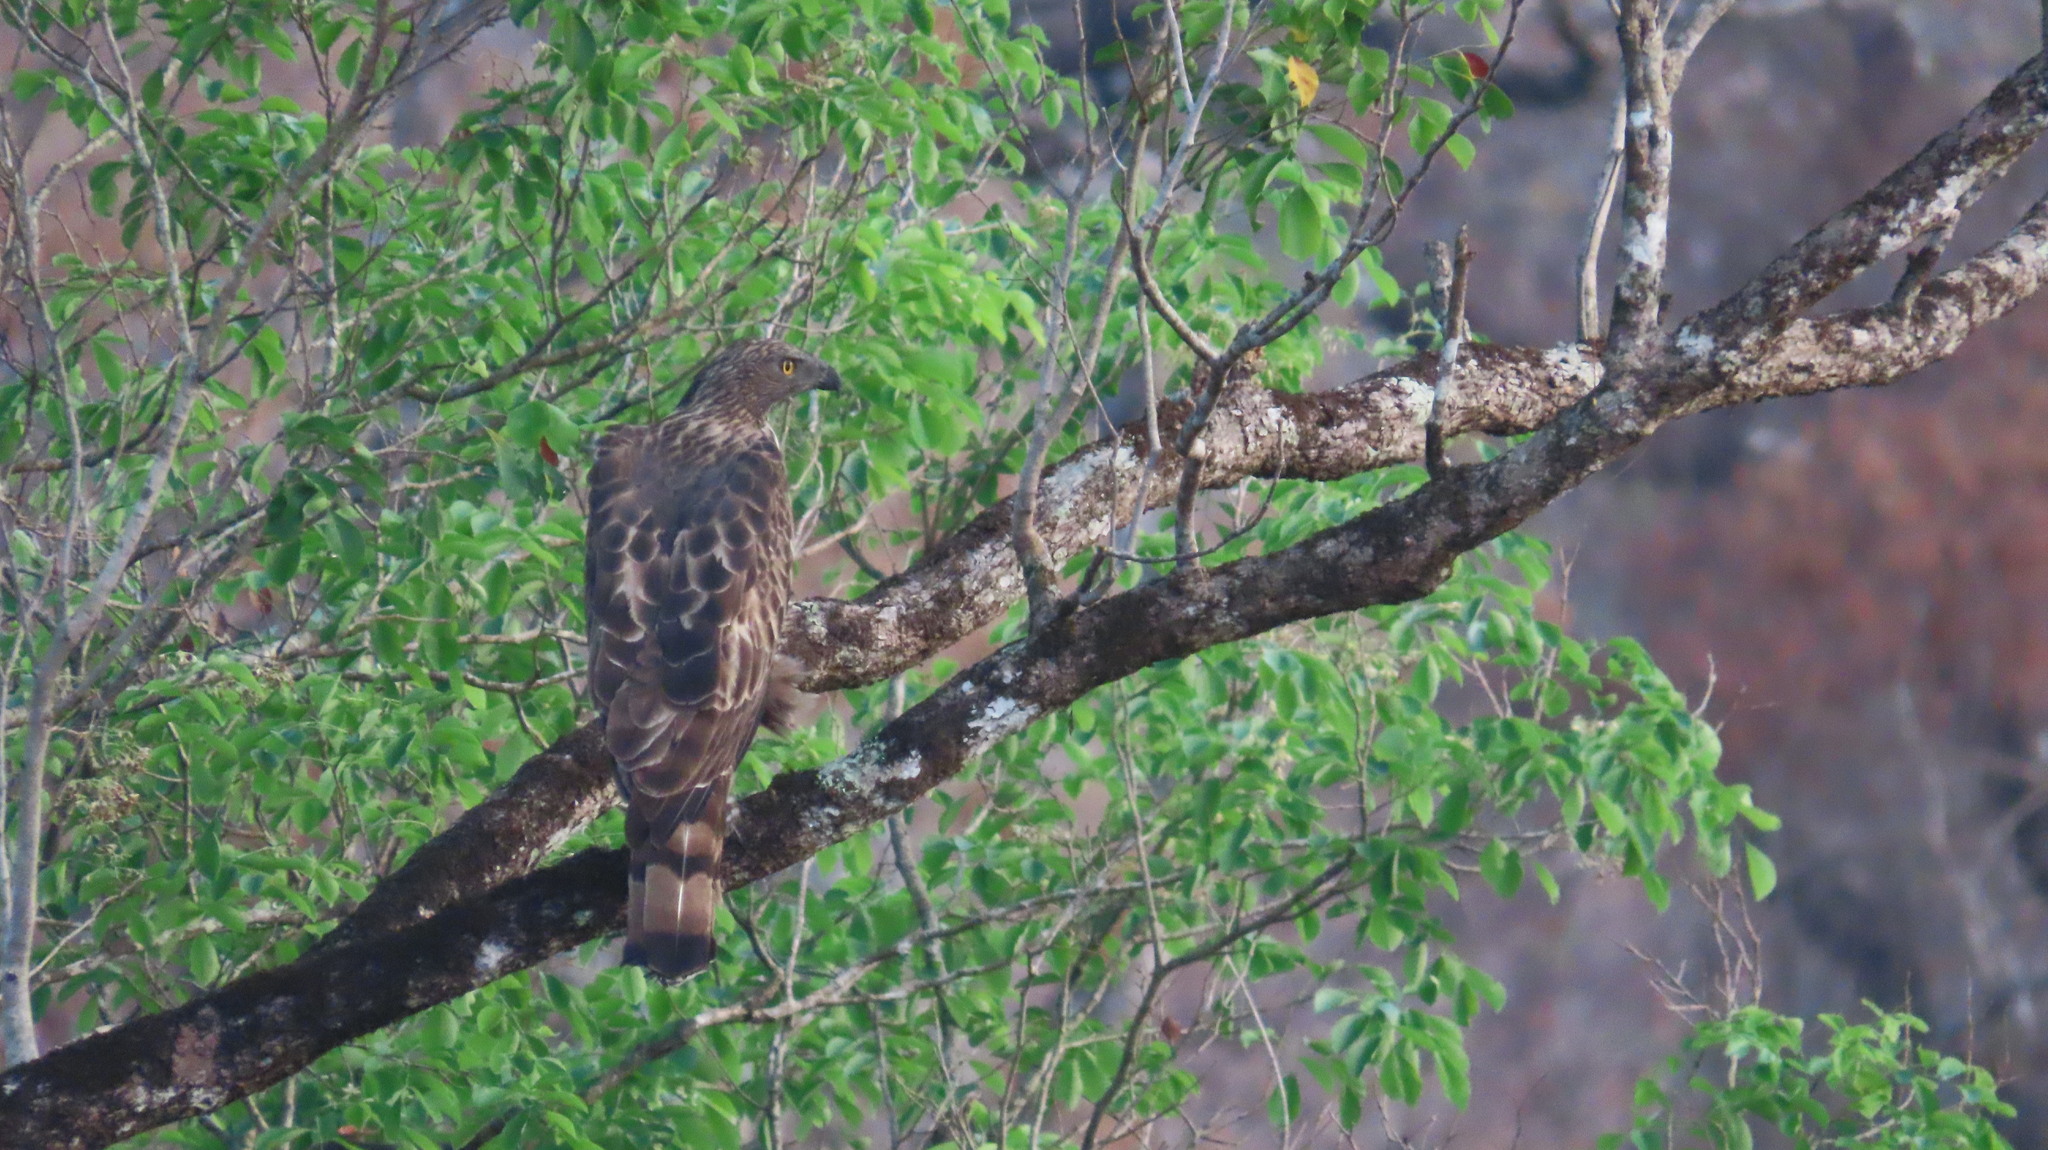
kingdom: Animalia
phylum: Chordata
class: Aves
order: Accipitriformes
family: Accipitridae
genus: Nisaetus
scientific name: Nisaetus cirrhatus
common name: Changeable hawk-eagle
